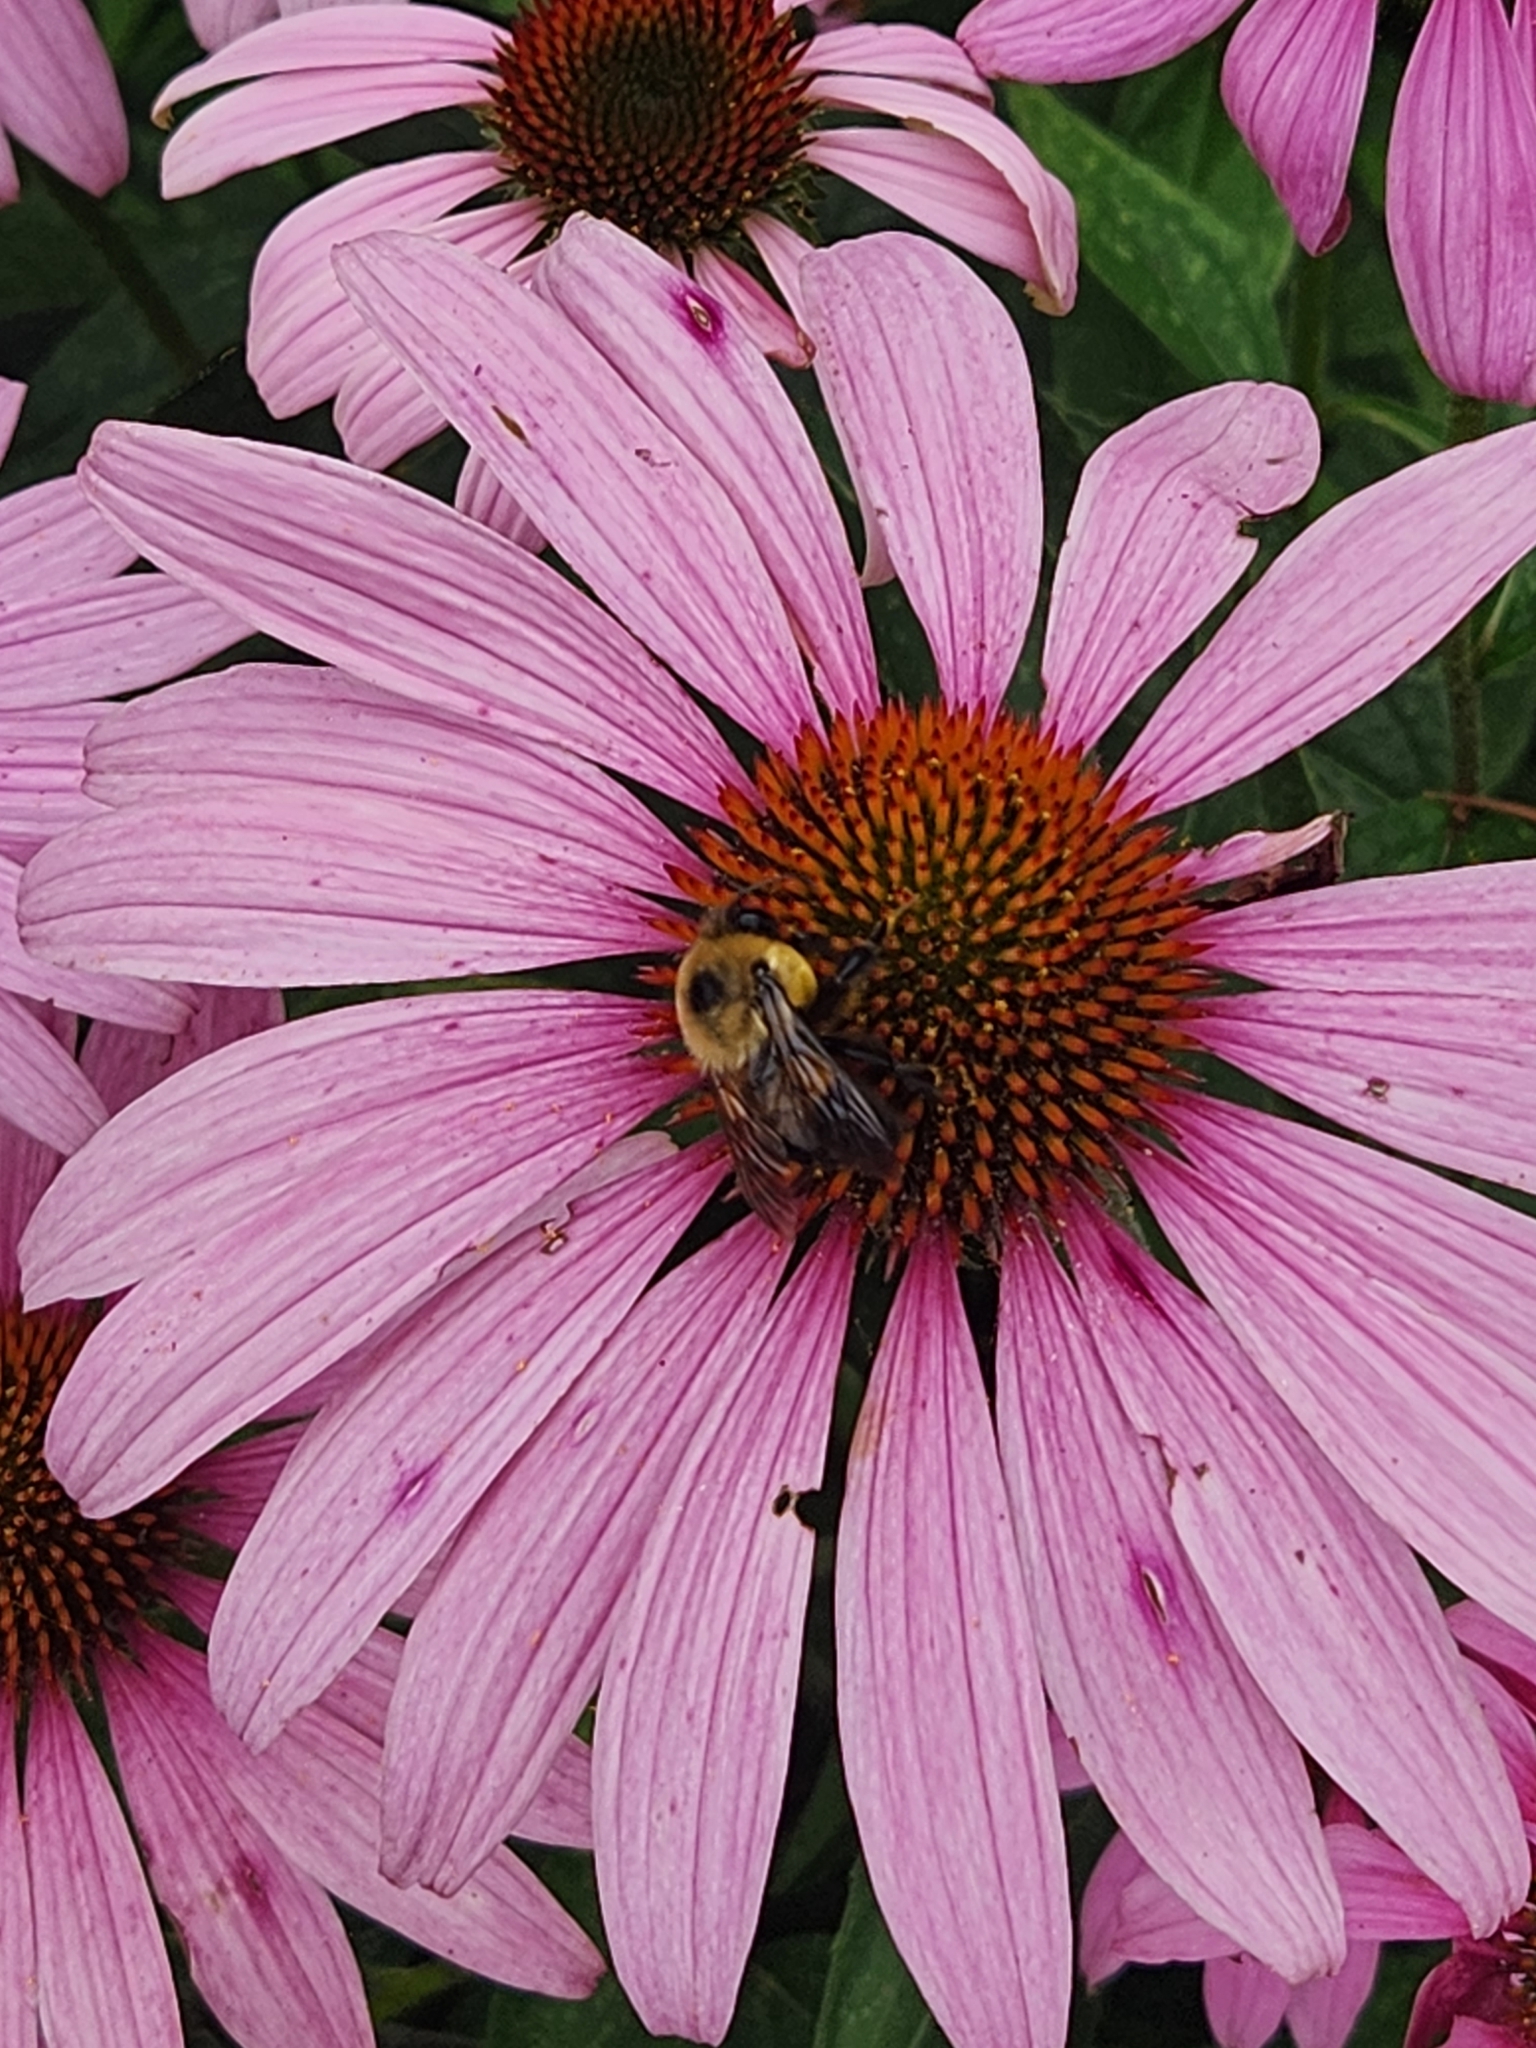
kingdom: Animalia
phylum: Arthropoda
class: Insecta
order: Hymenoptera
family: Apidae
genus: Bombus
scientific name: Bombus griseocollis
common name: Brown-belted bumble bee
